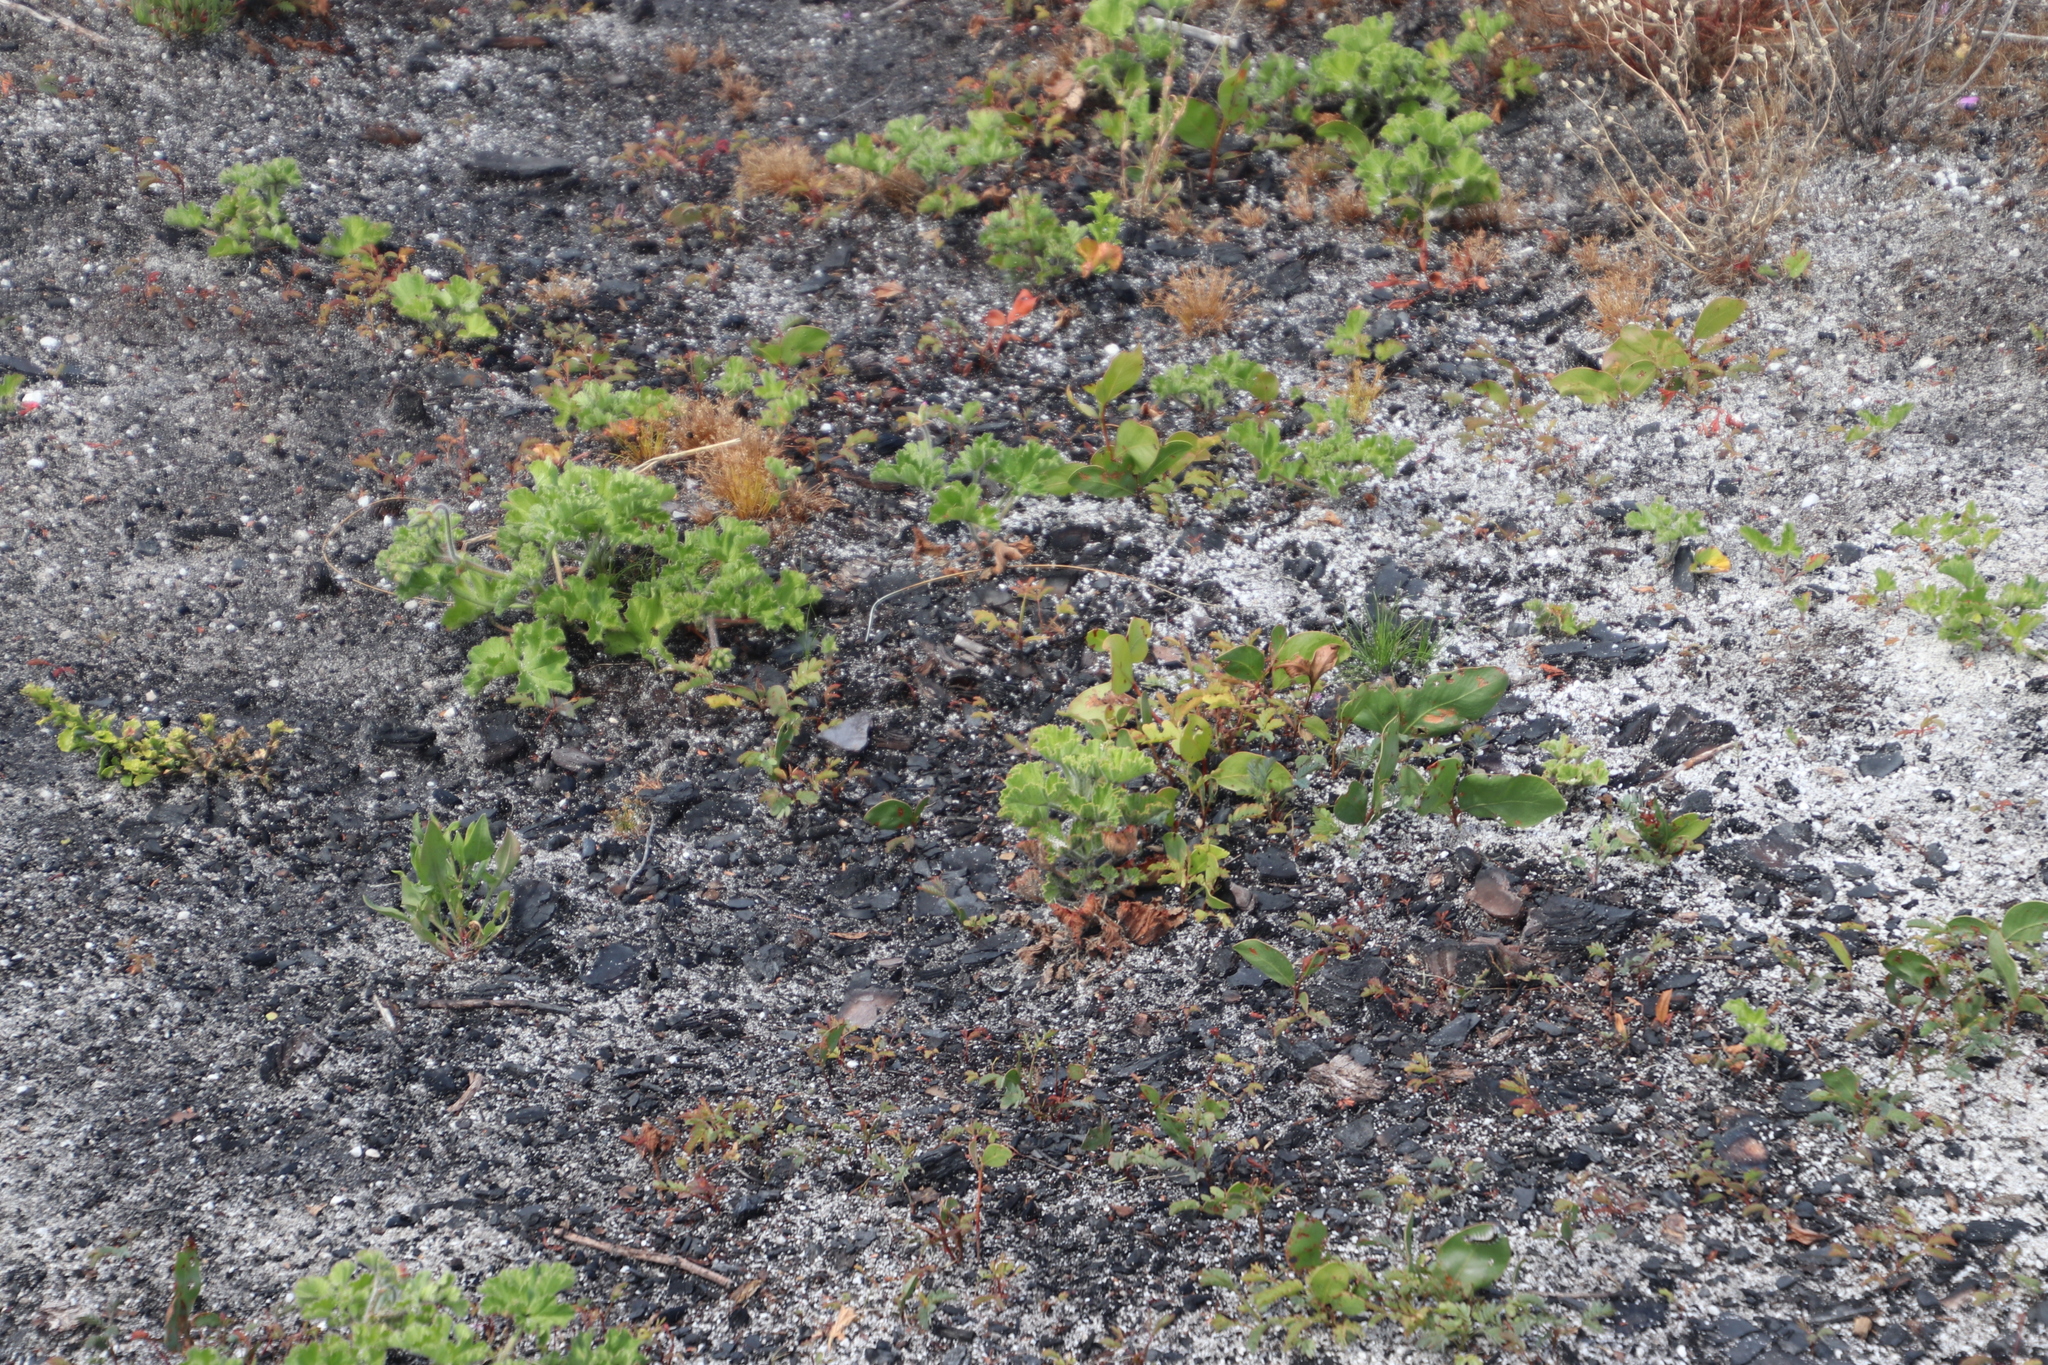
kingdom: Plantae
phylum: Tracheophyta
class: Magnoliopsida
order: Fabales
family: Fabaceae
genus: Acacia
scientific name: Acacia pycnantha
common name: Golden wattle
